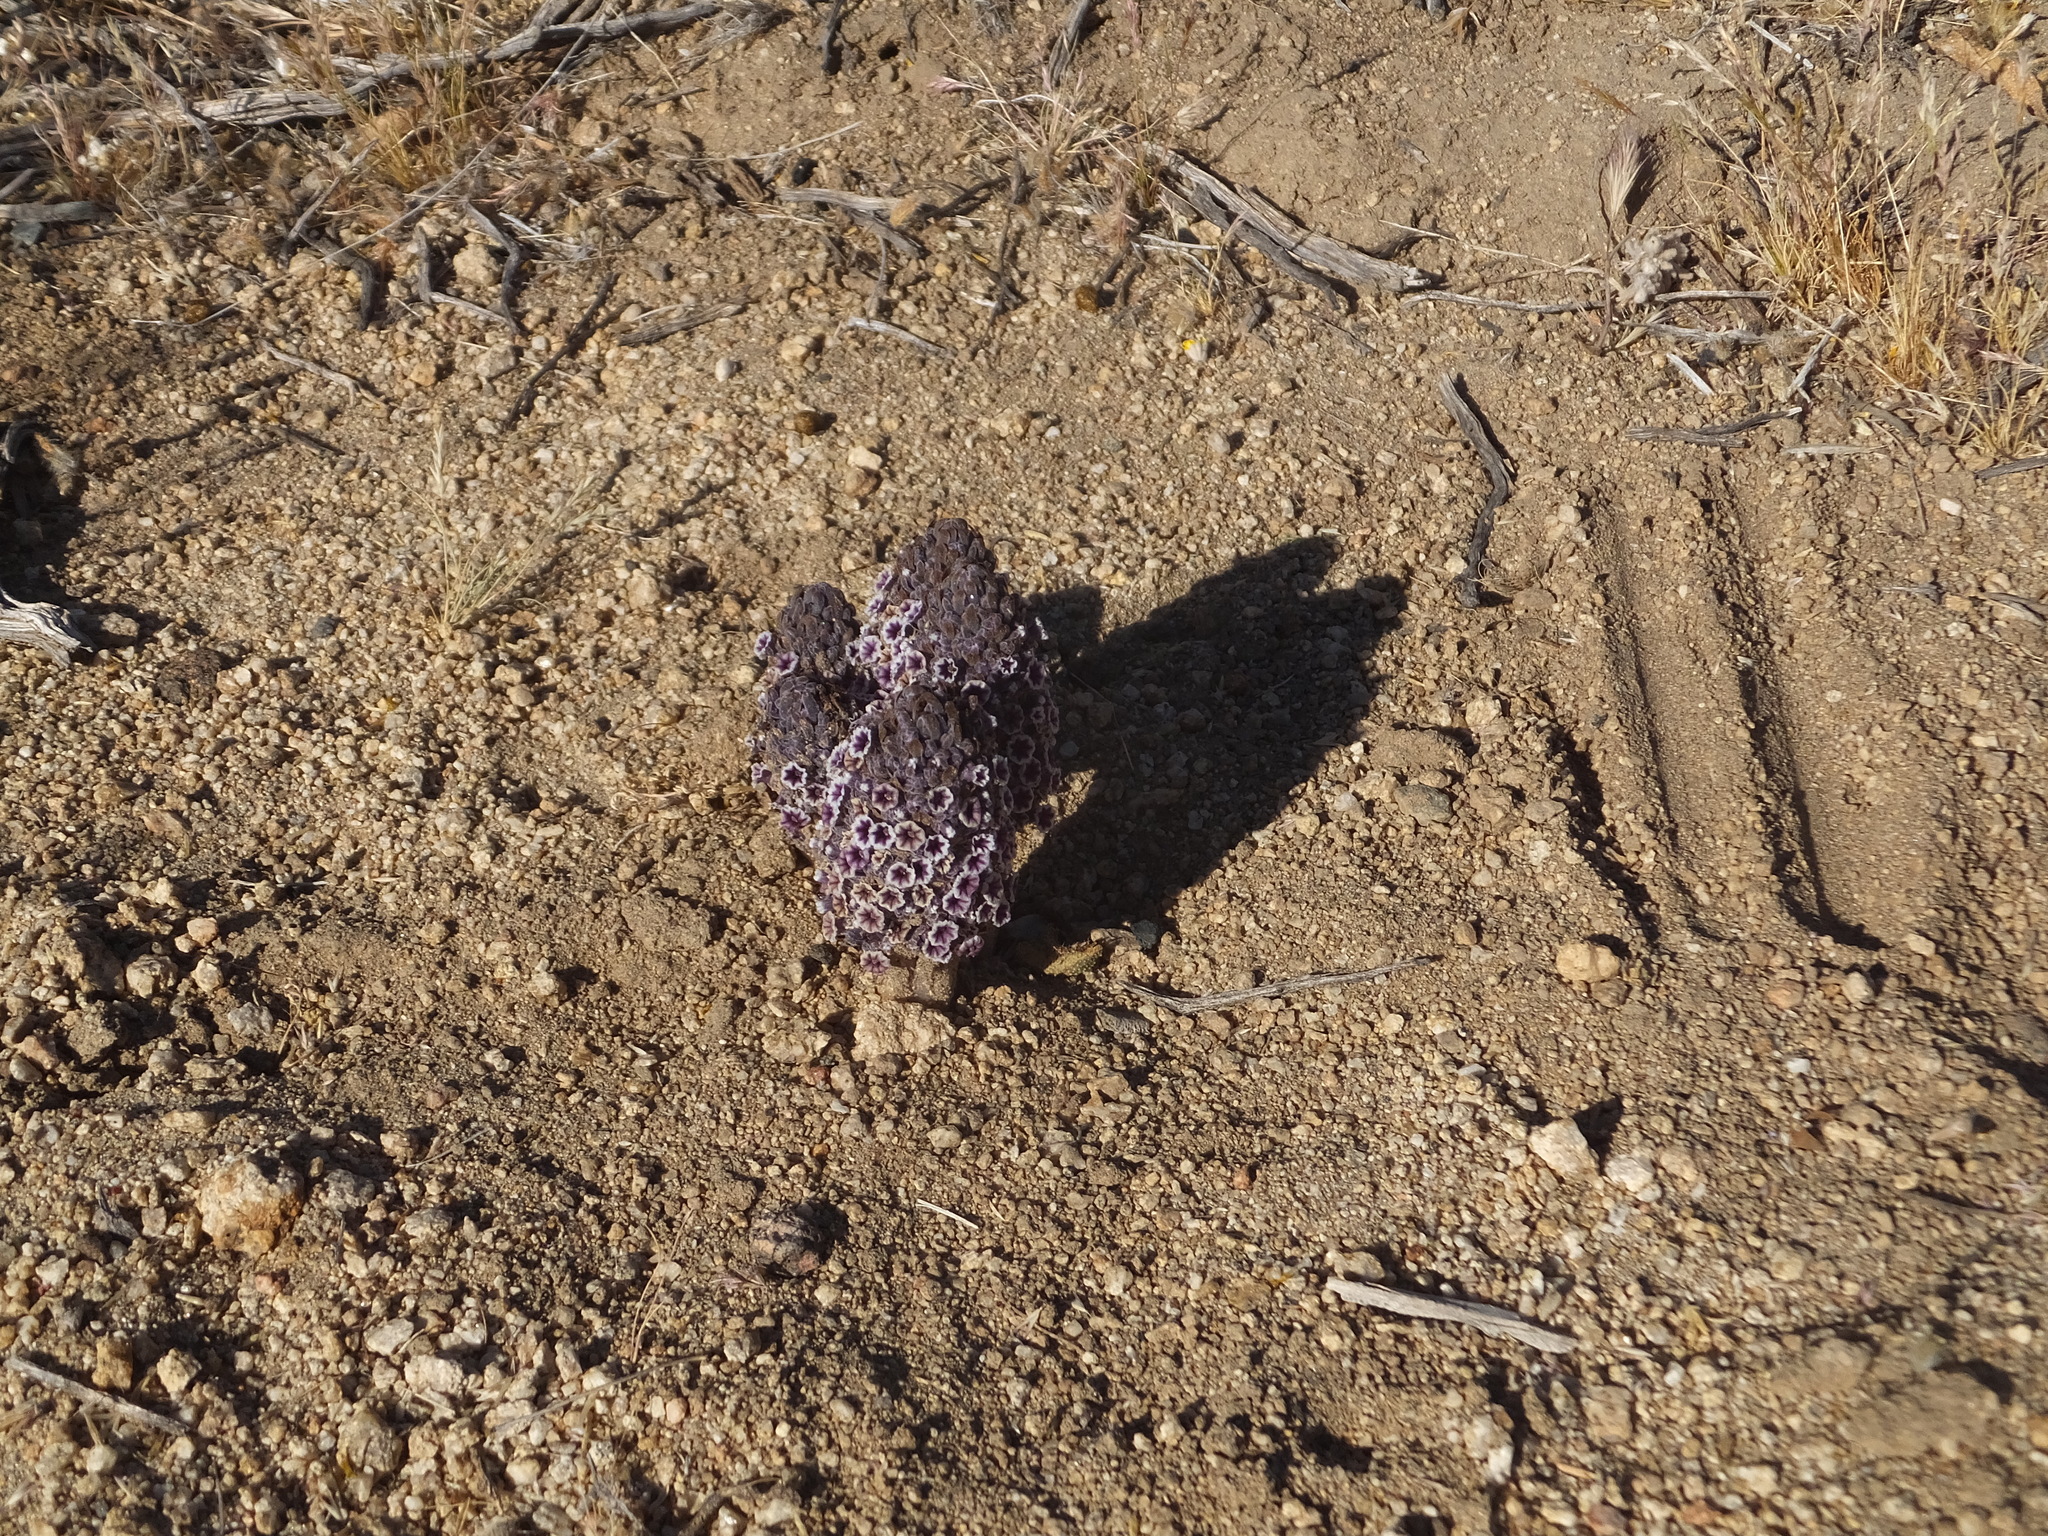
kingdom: Plantae
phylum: Tracheophyta
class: Magnoliopsida
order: Boraginales
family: Lennoaceae
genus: Pholisma
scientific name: Pholisma arenarium
